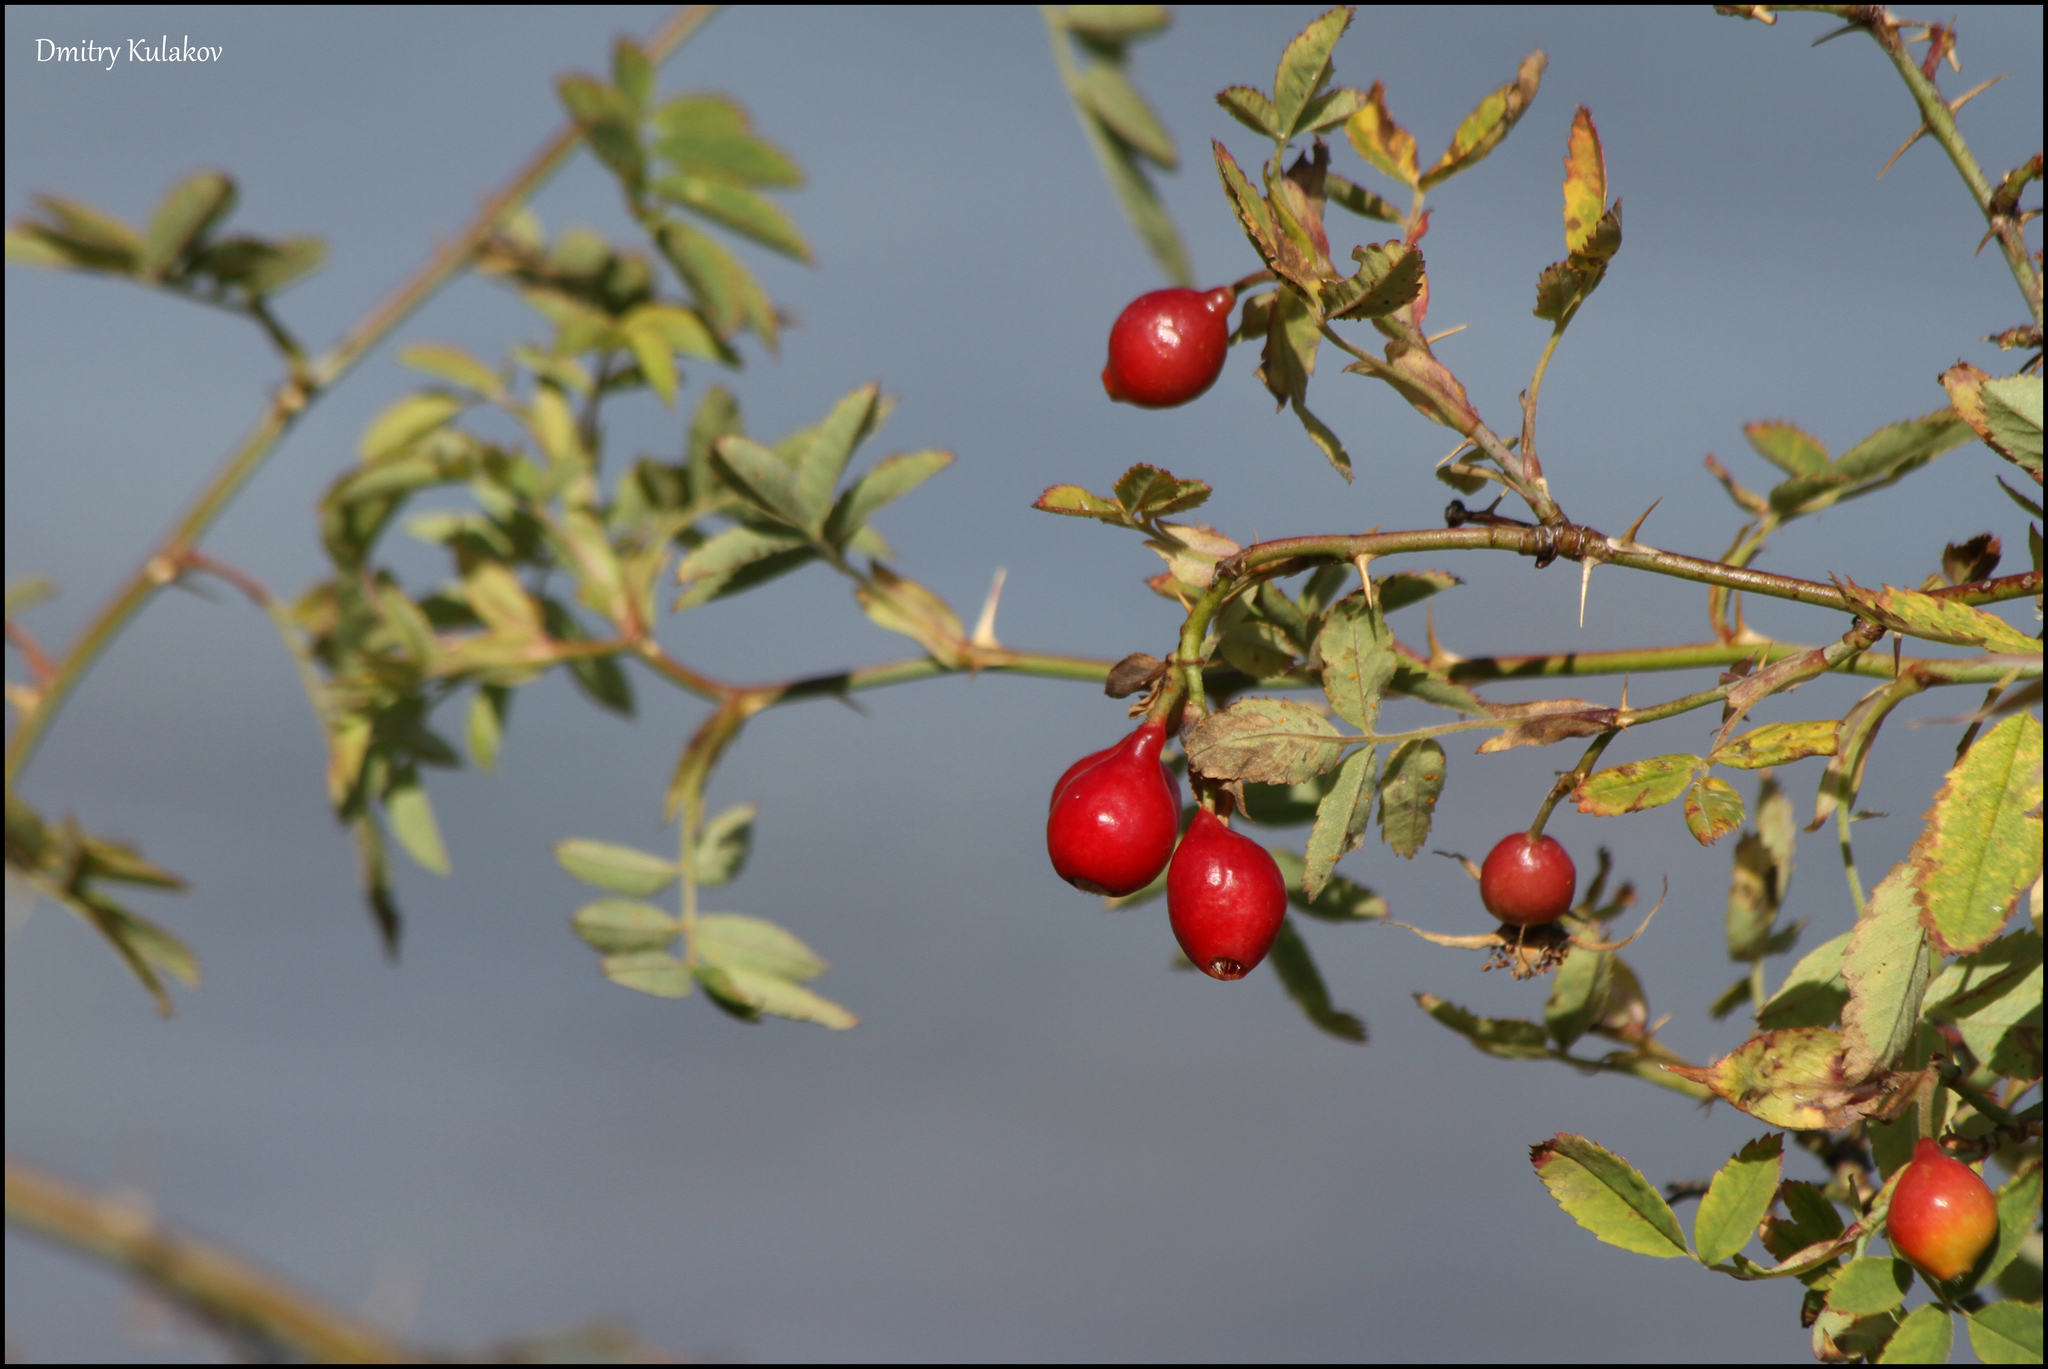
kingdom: Plantae
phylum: Tracheophyta
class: Magnoliopsida
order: Rosales
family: Rosaceae
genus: Rosa
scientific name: Rosa beggeriana
